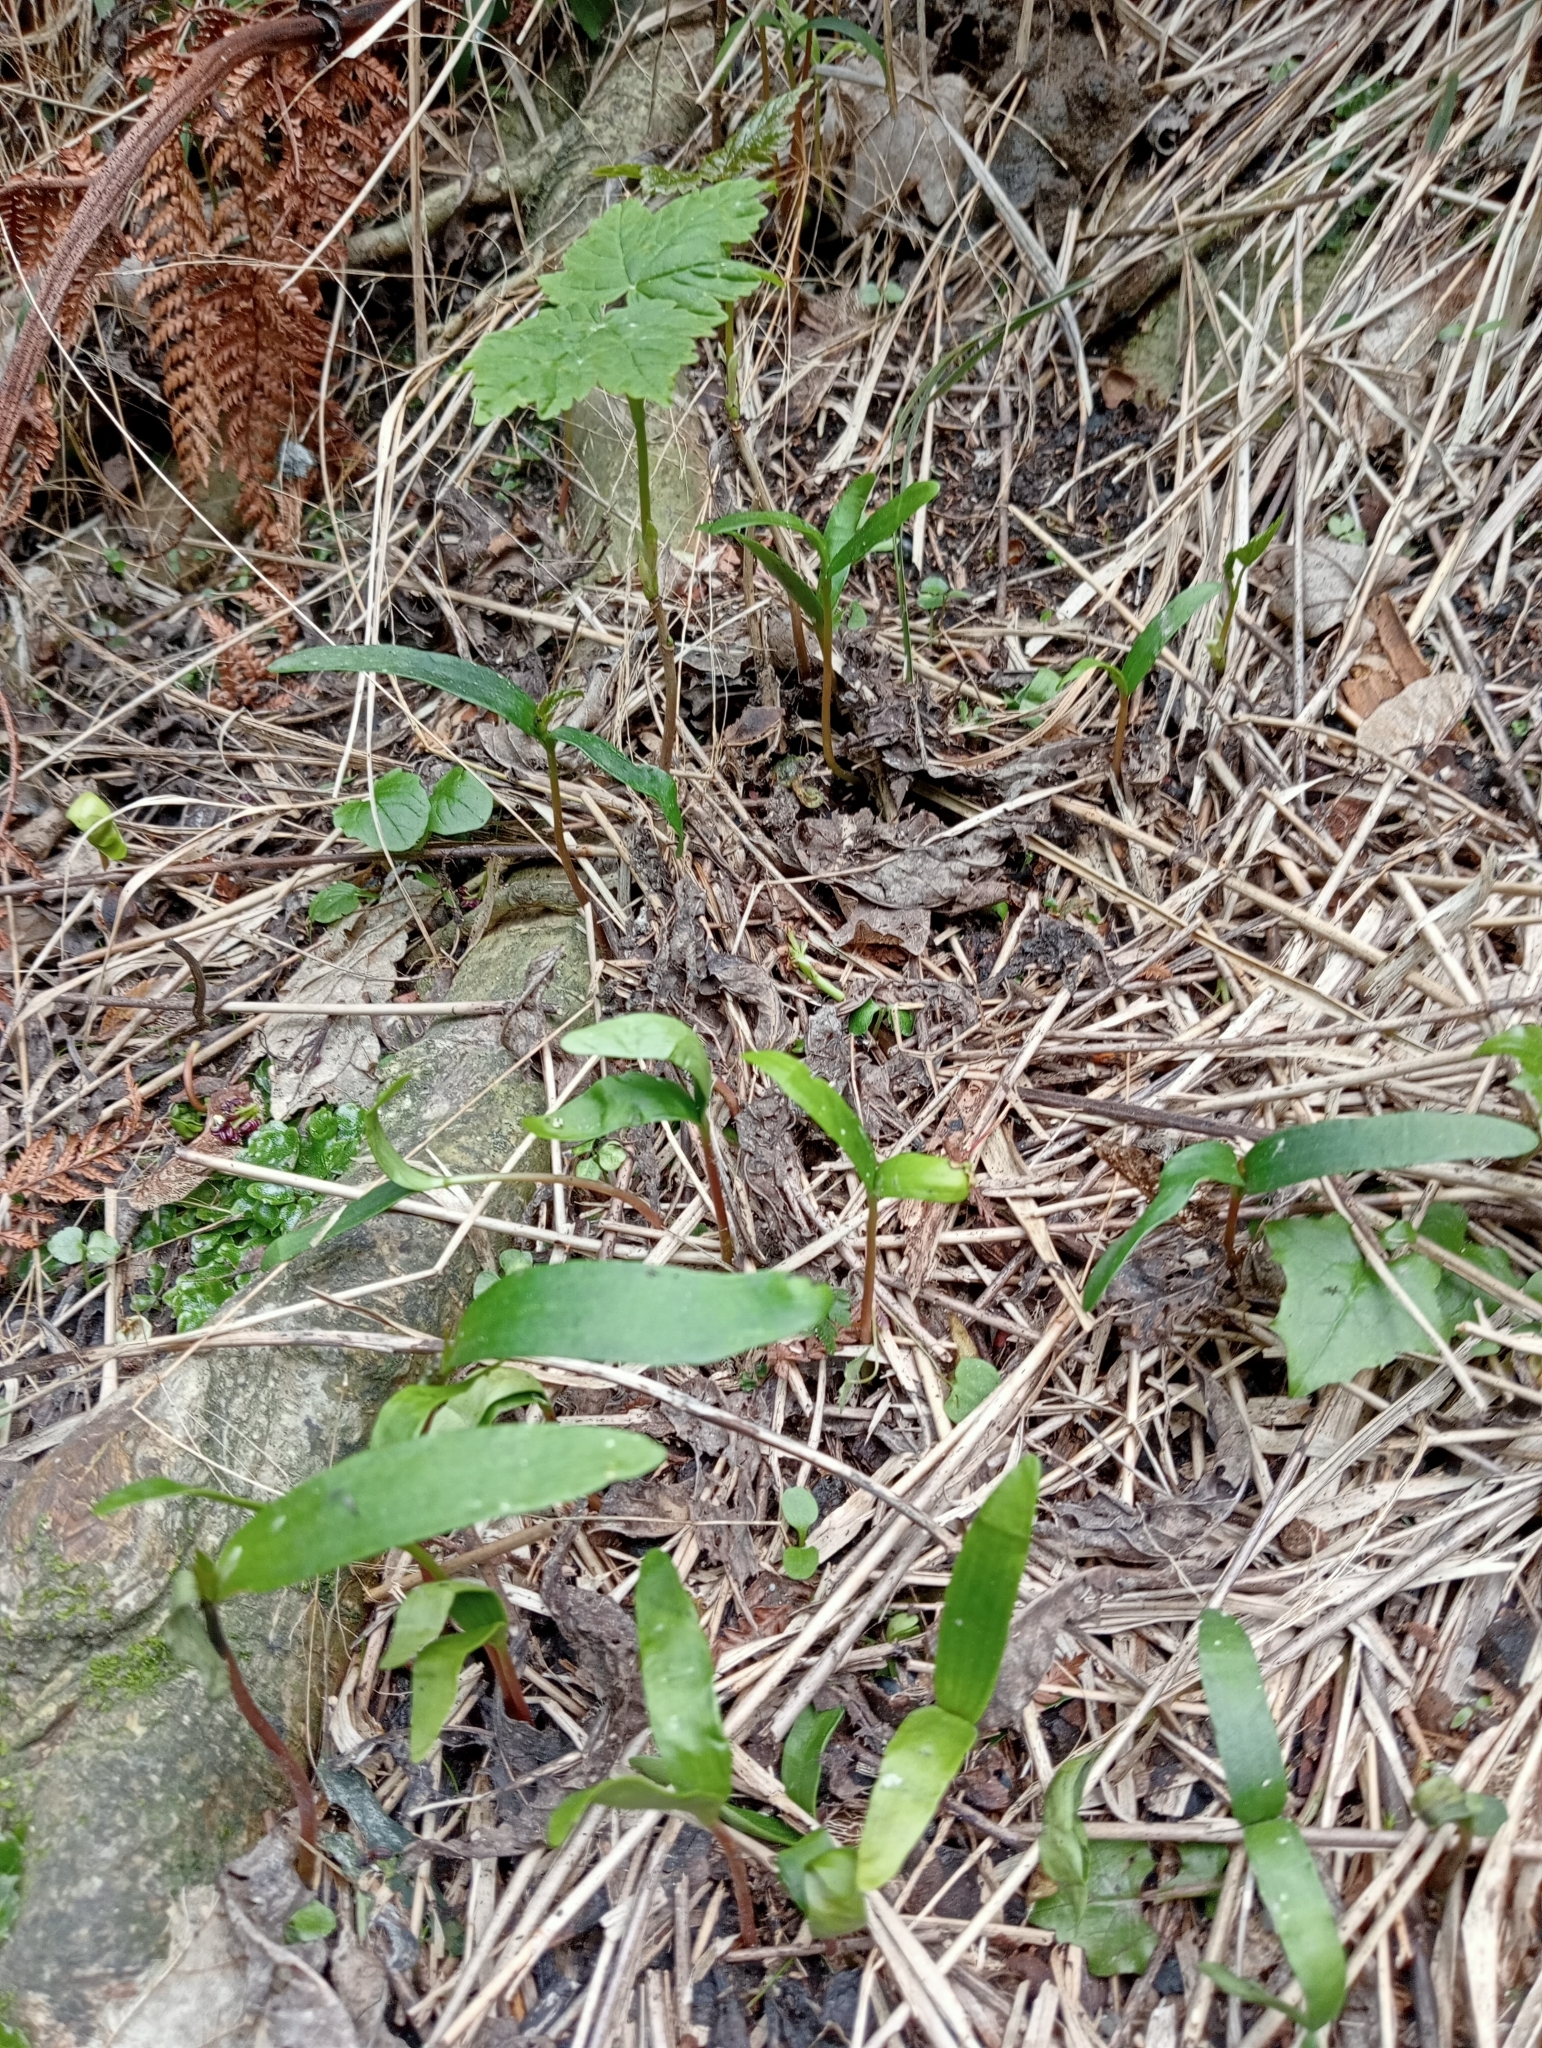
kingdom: Plantae
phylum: Tracheophyta
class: Magnoliopsida
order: Sapindales
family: Sapindaceae
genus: Acer
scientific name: Acer pseudoplatanus
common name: Sycamore
